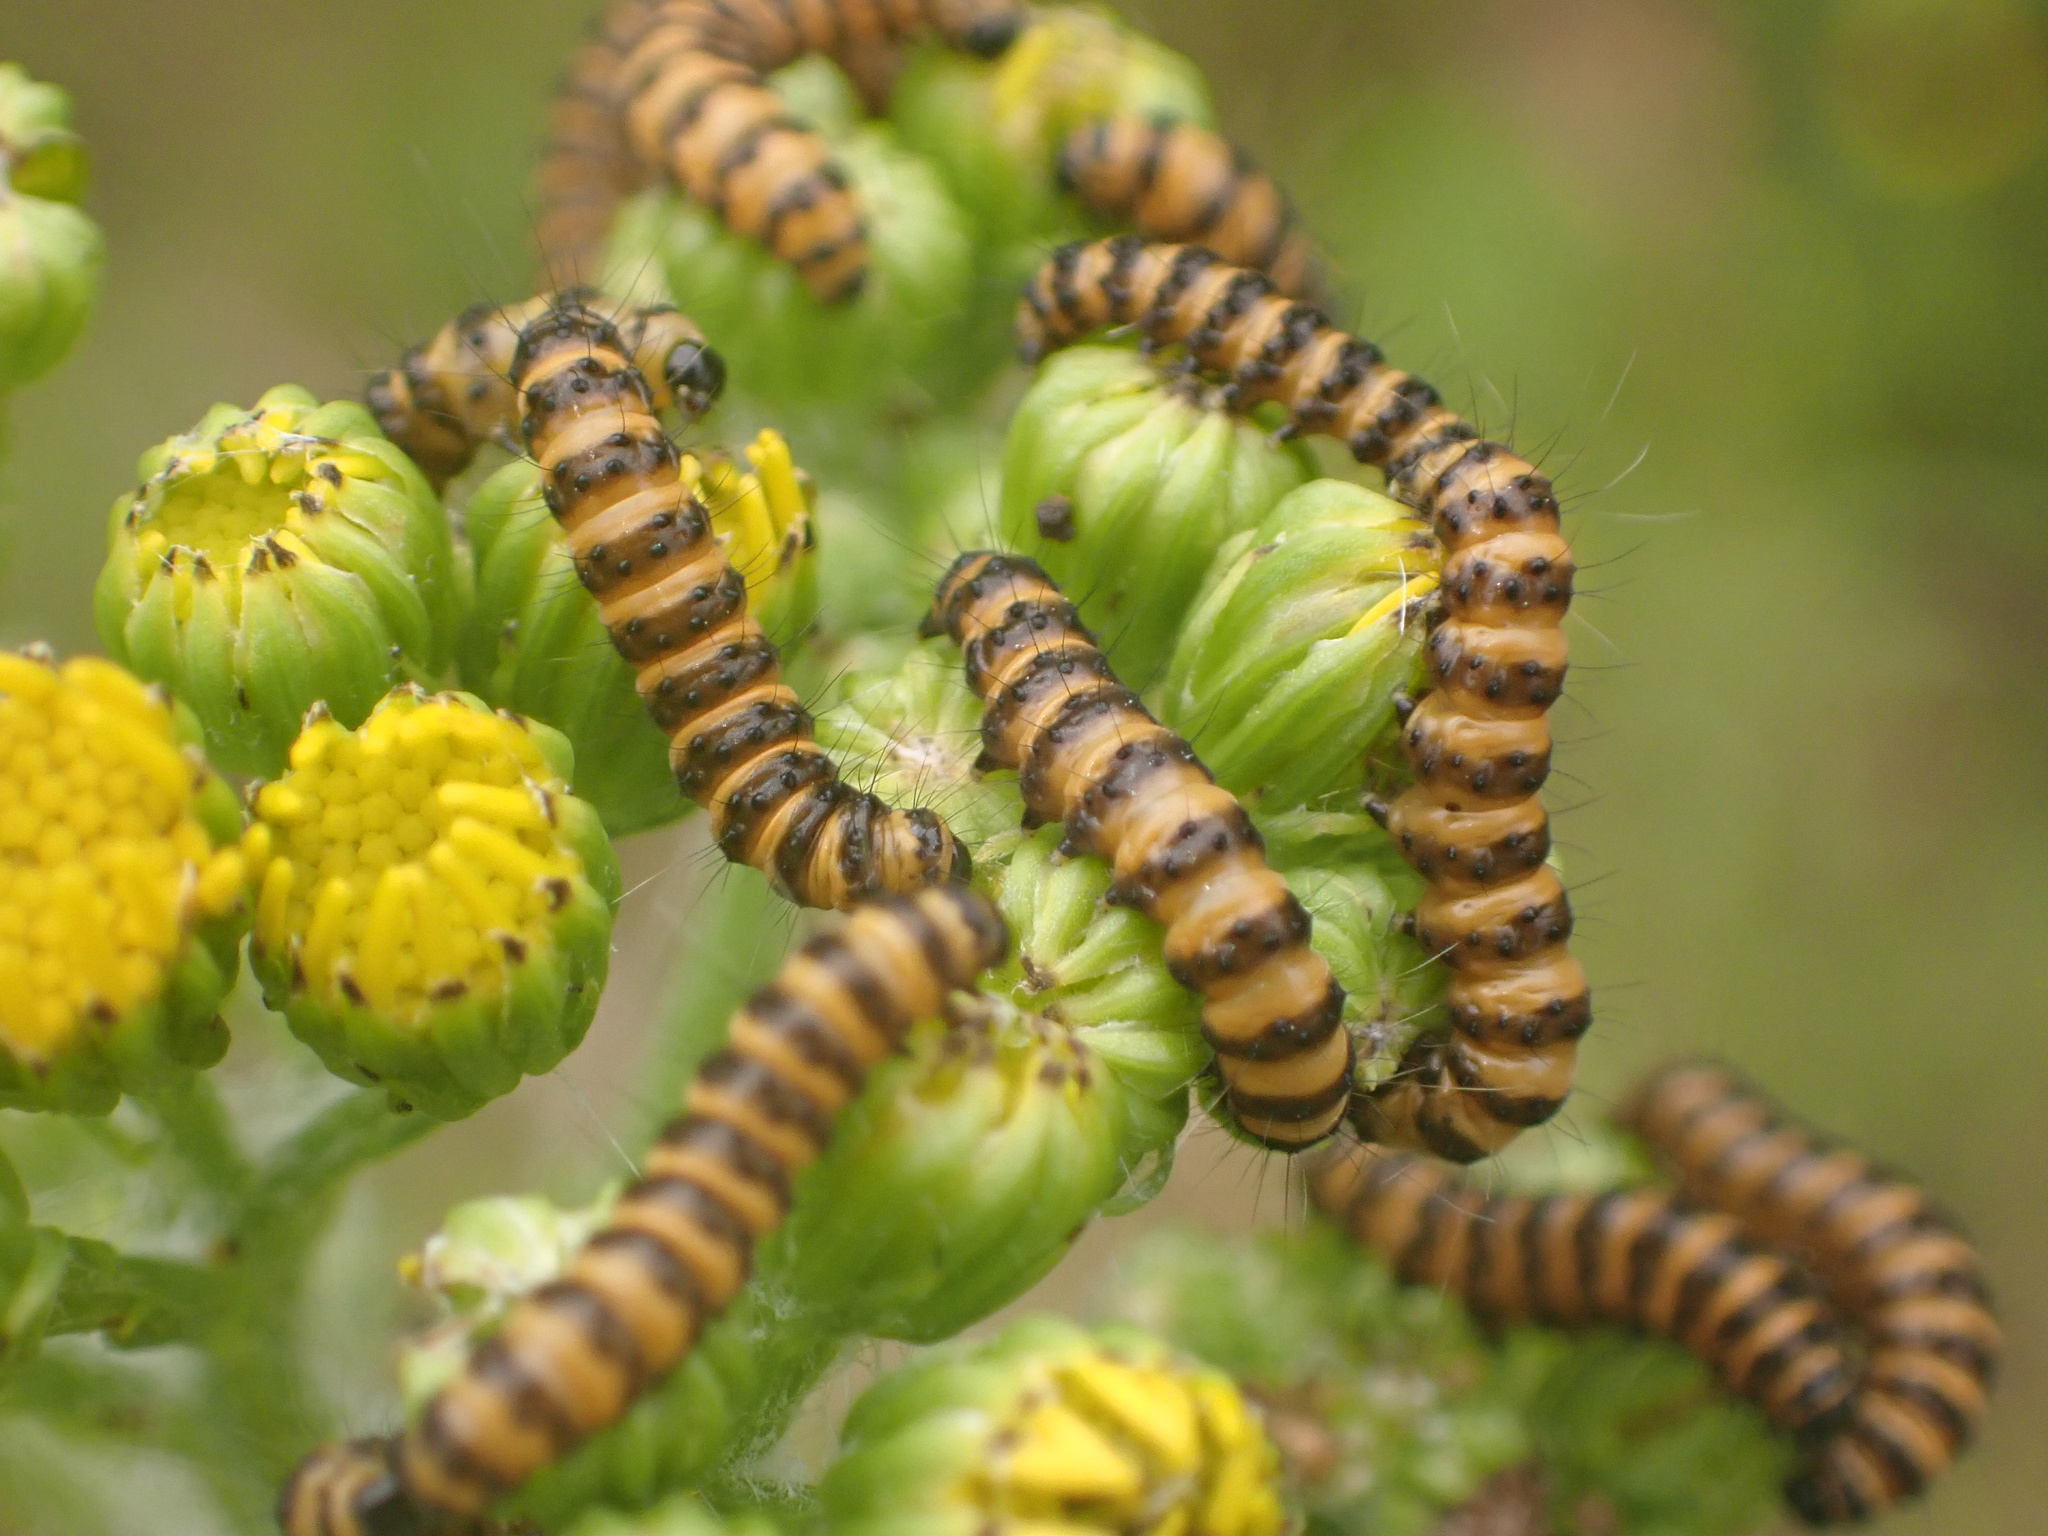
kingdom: Animalia
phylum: Arthropoda
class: Insecta
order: Lepidoptera
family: Erebidae
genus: Tyria
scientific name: Tyria jacobaeae
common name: Cinnabar
